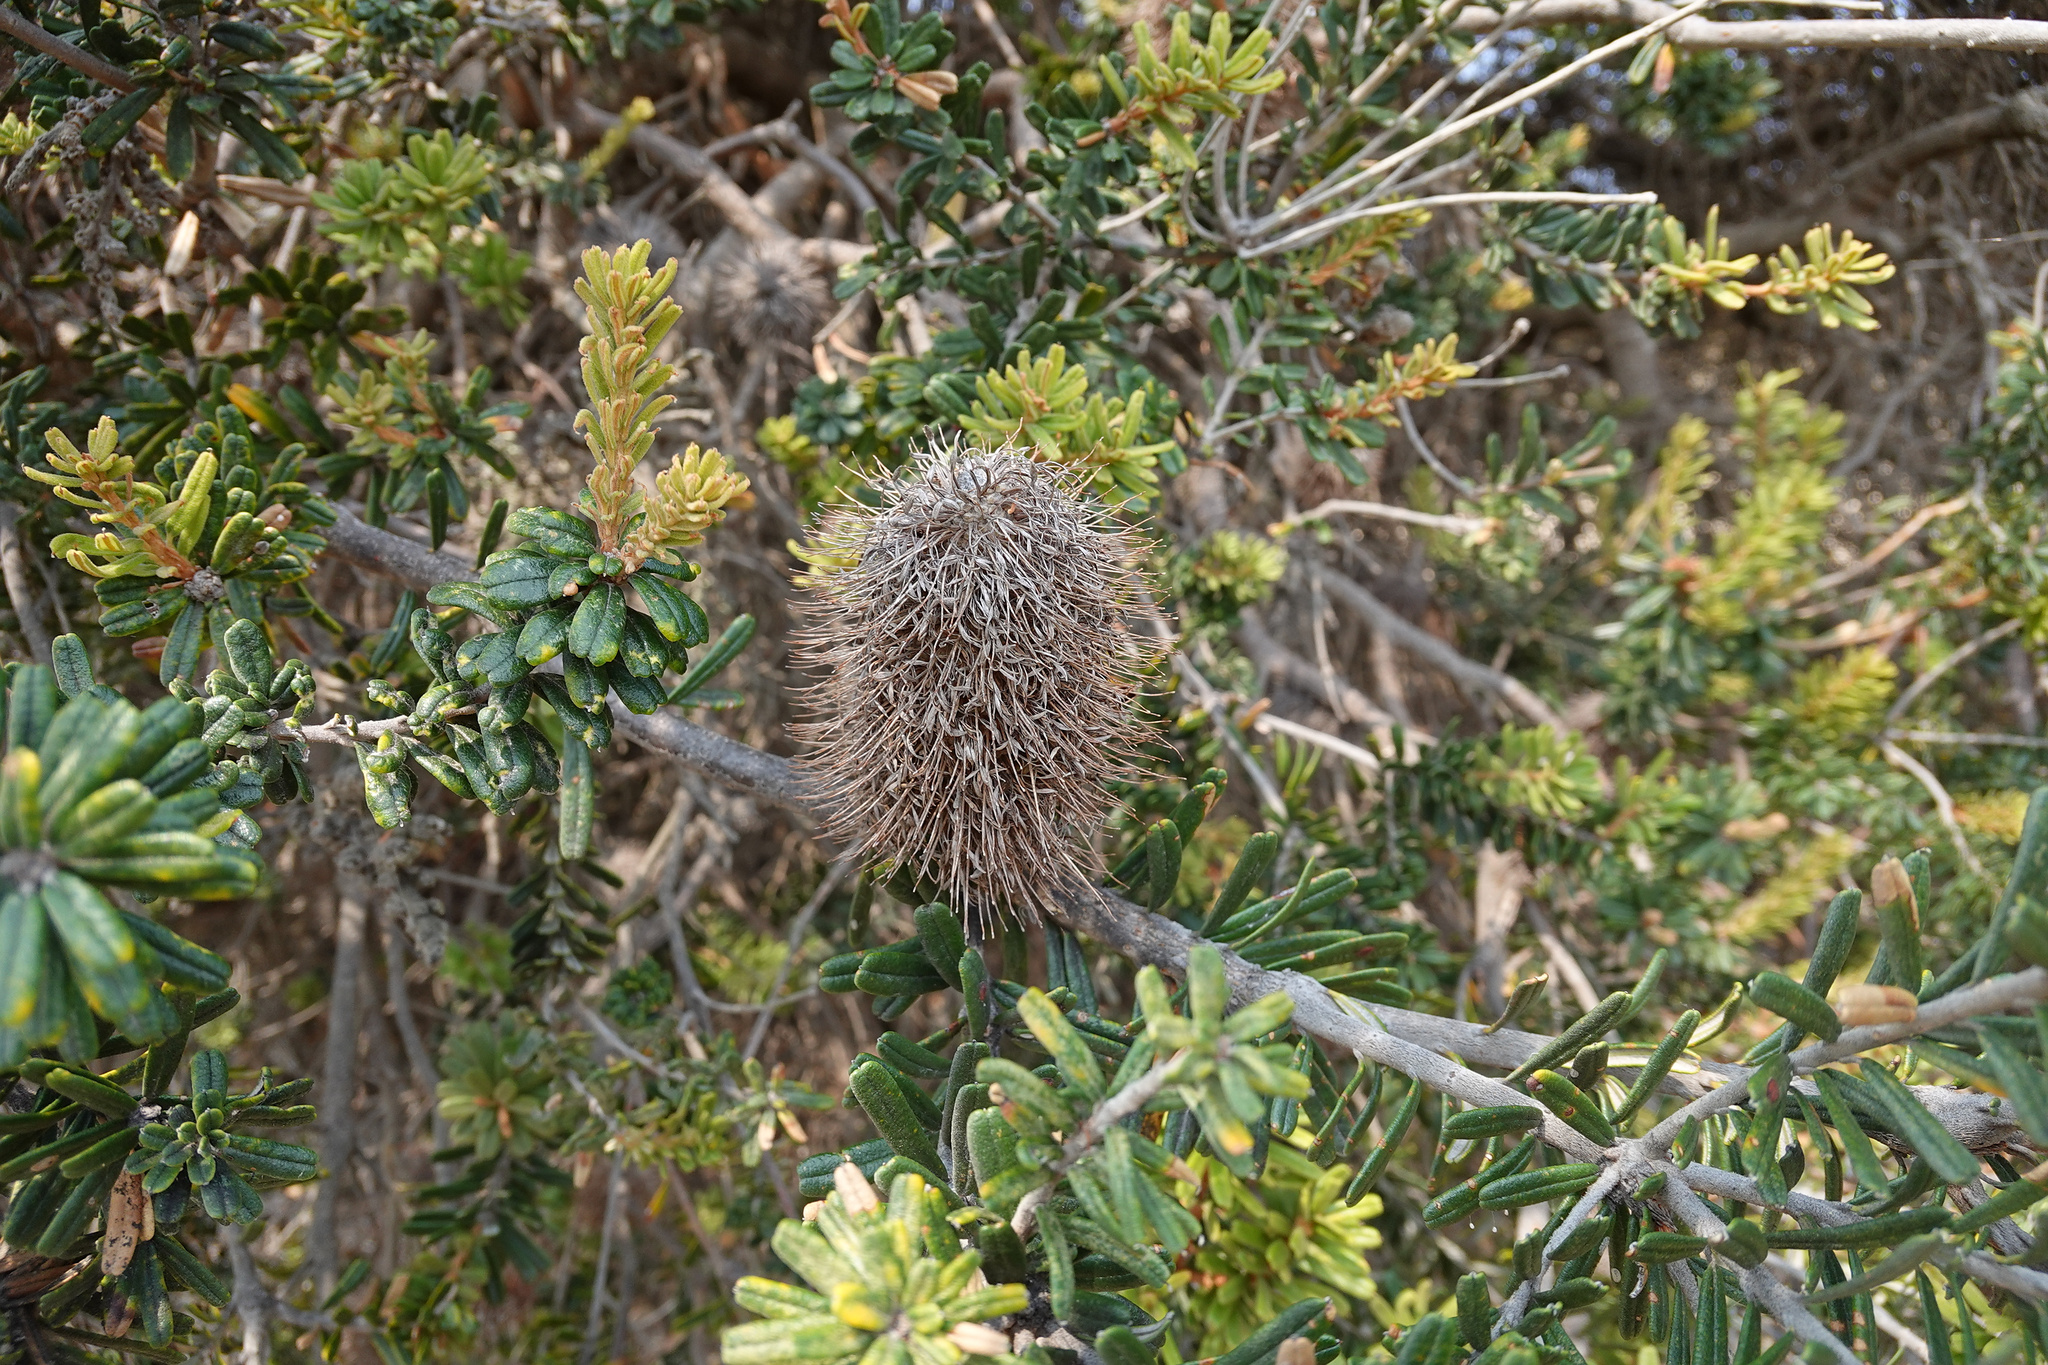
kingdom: Plantae
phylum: Tracheophyta
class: Magnoliopsida
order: Proteales
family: Proteaceae
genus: Banksia
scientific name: Banksia marginata
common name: Silver banksia
